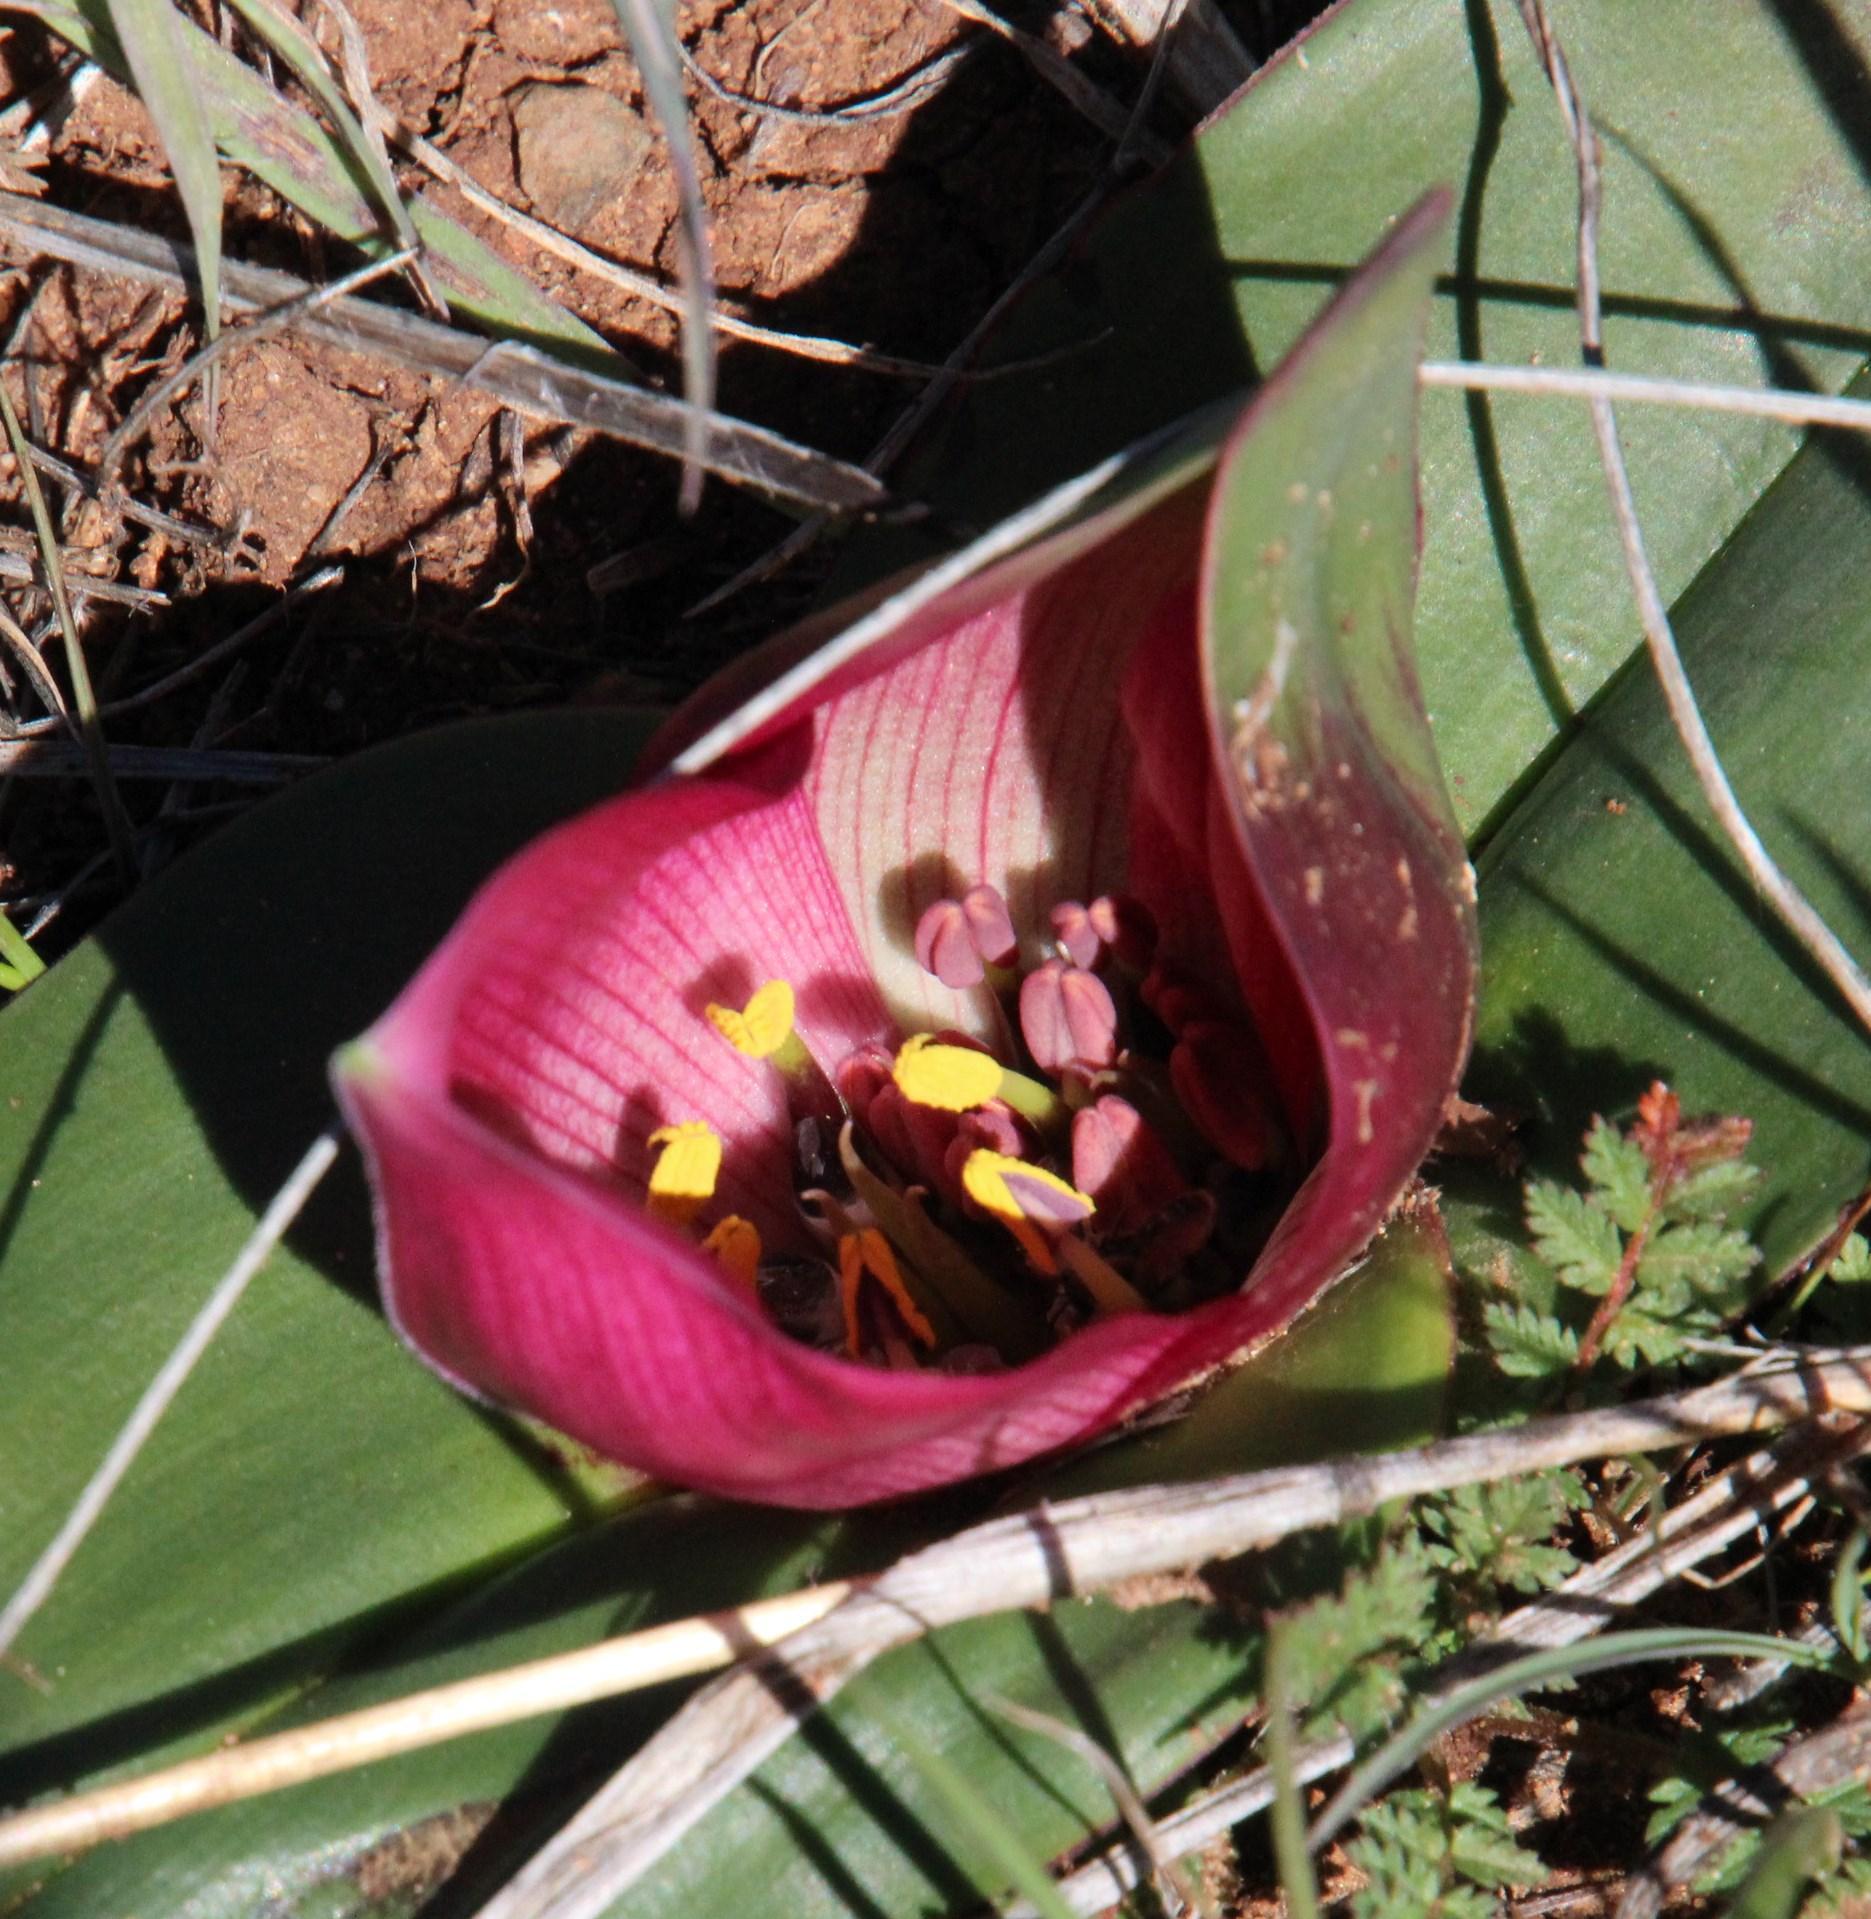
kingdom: Plantae
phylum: Tracheophyta
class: Liliopsida
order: Liliales
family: Colchicaceae
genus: Colchicum
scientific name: Colchicum burchellii
